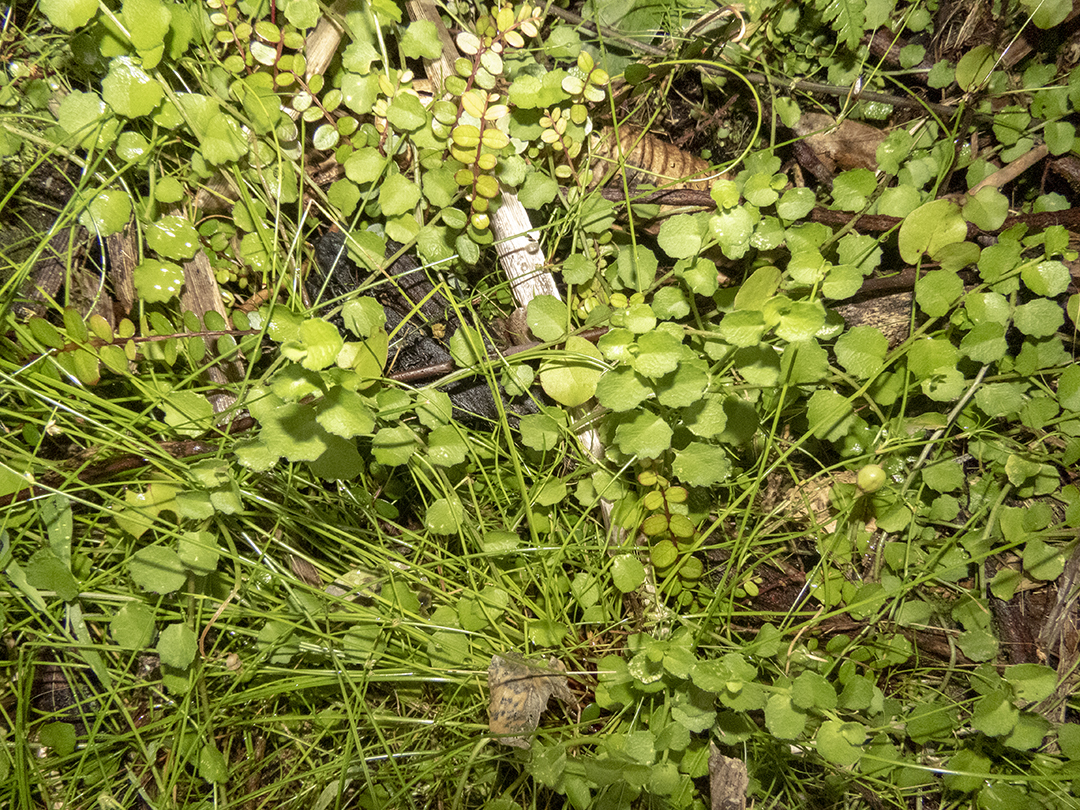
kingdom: Plantae
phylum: Tracheophyta
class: Magnoliopsida
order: Asterales
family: Campanulaceae
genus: Lobelia
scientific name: Lobelia angulata
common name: Lawn lobelia
